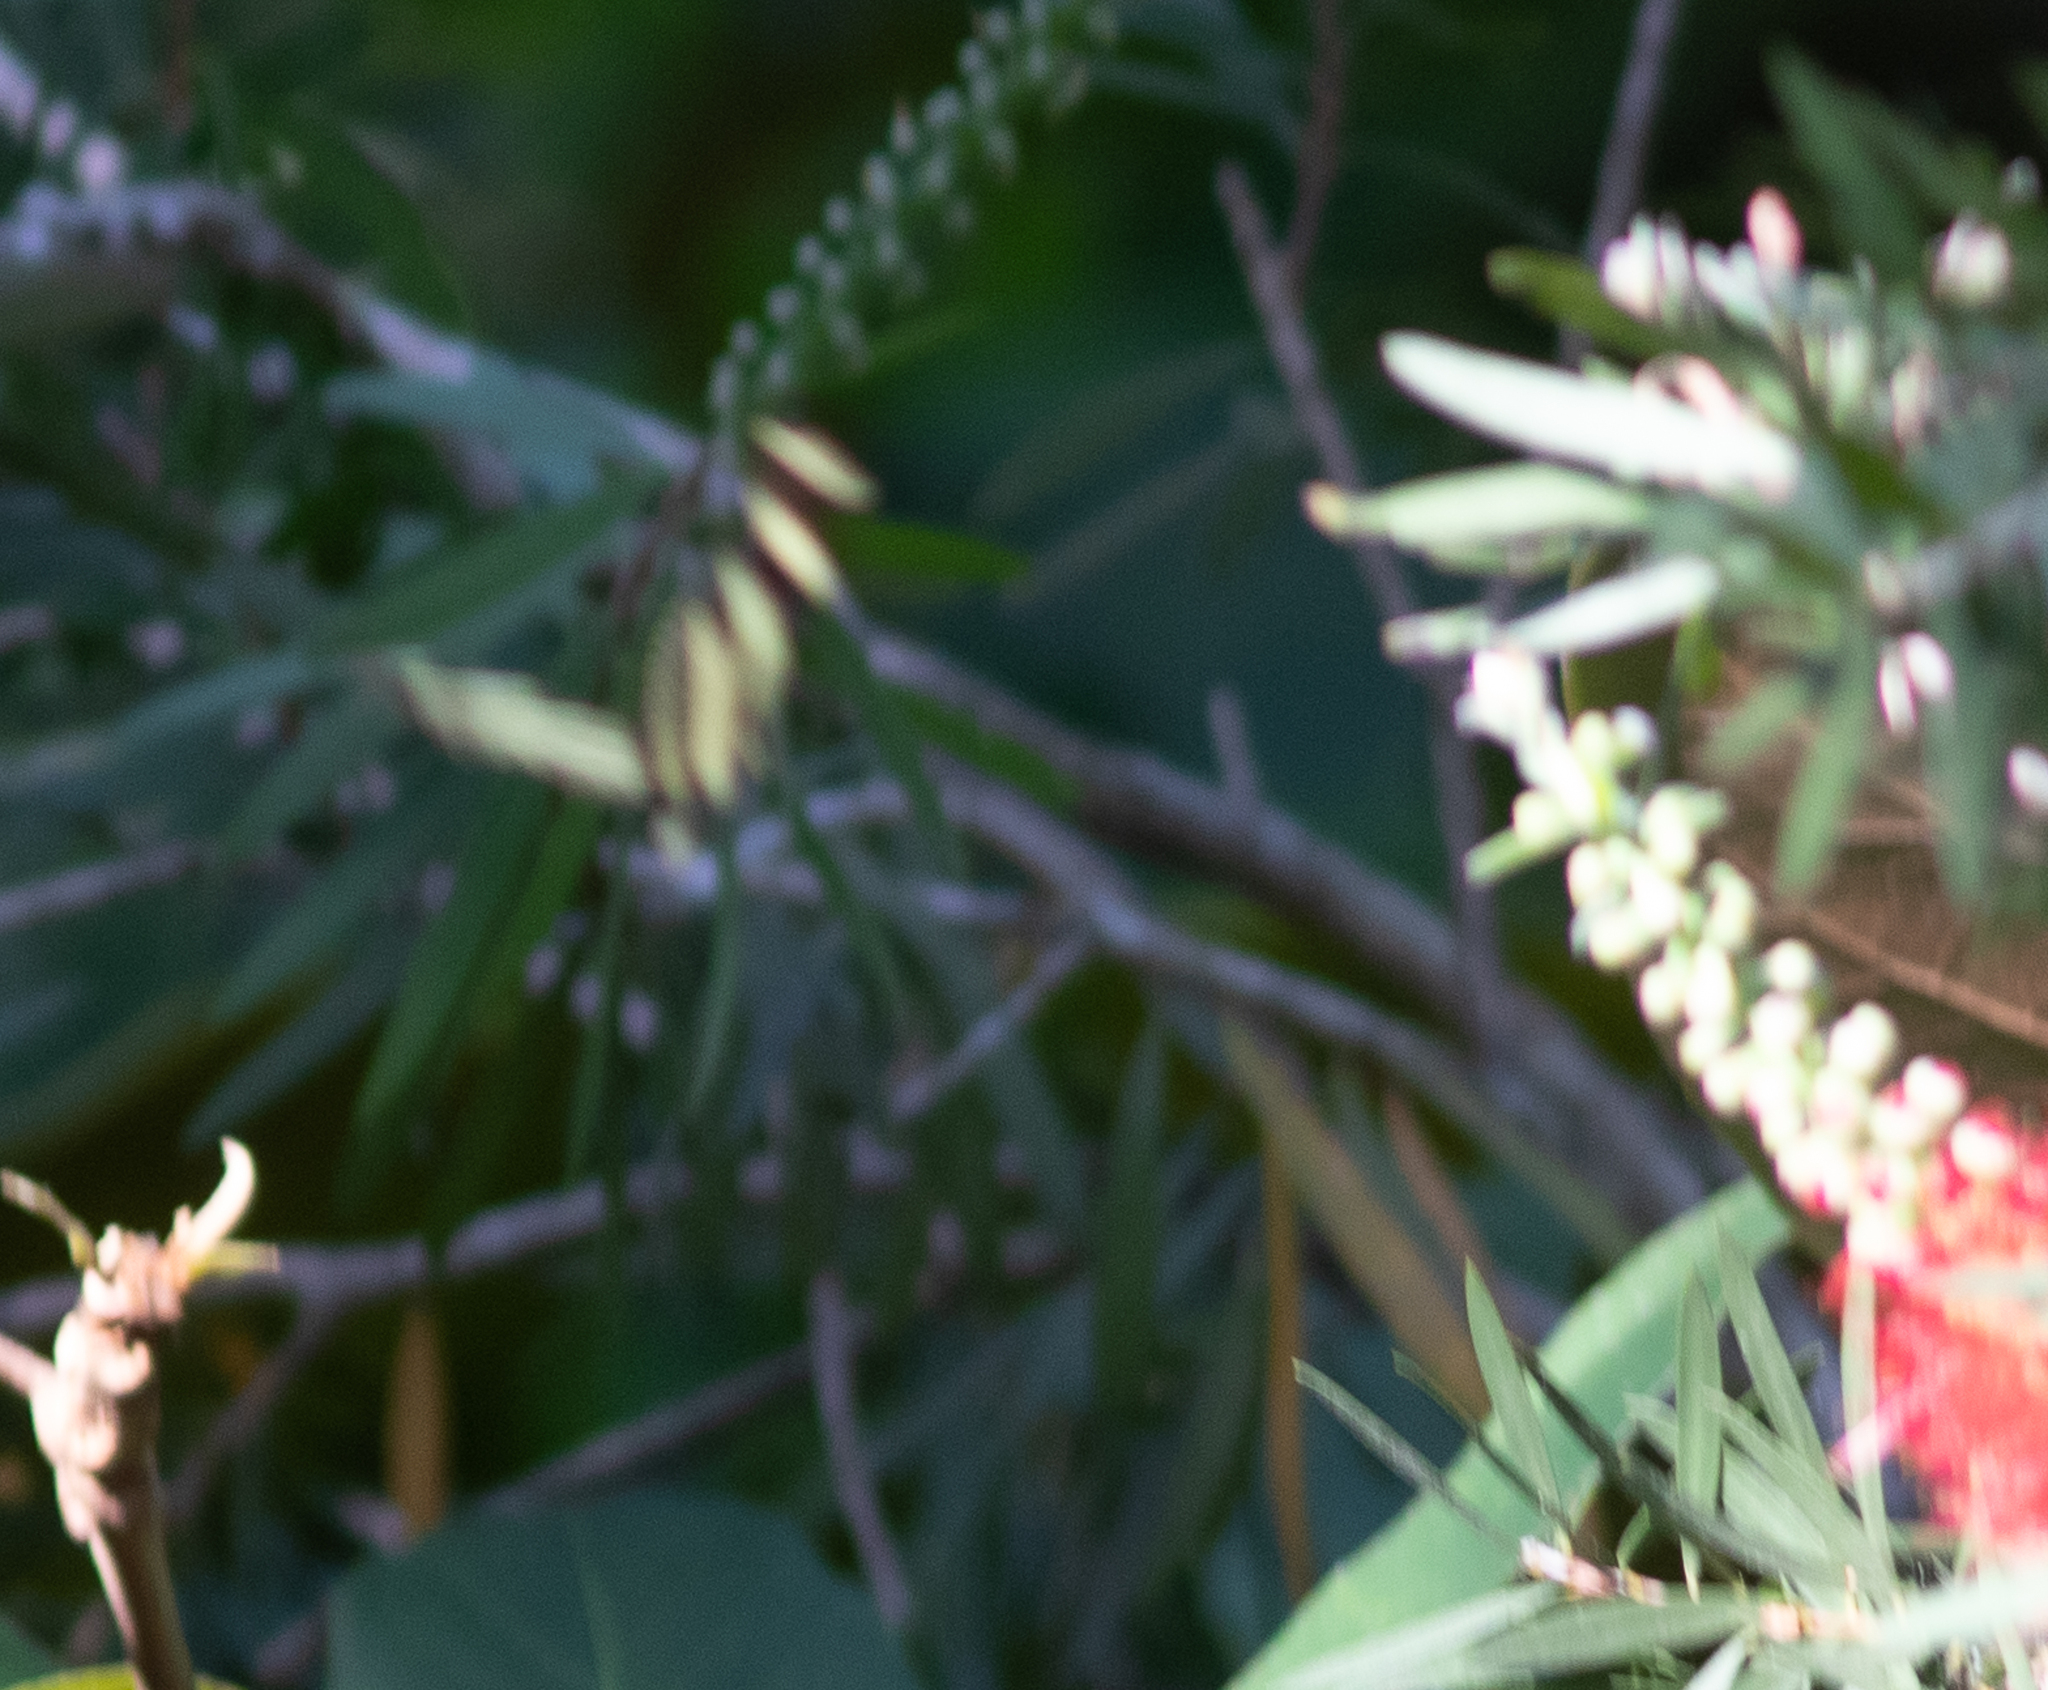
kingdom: Animalia
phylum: Arthropoda
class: Insecta
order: Lepidoptera
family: Nymphalidae
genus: Heliconius
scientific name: Heliconius charithonia
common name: Zebra long wing
